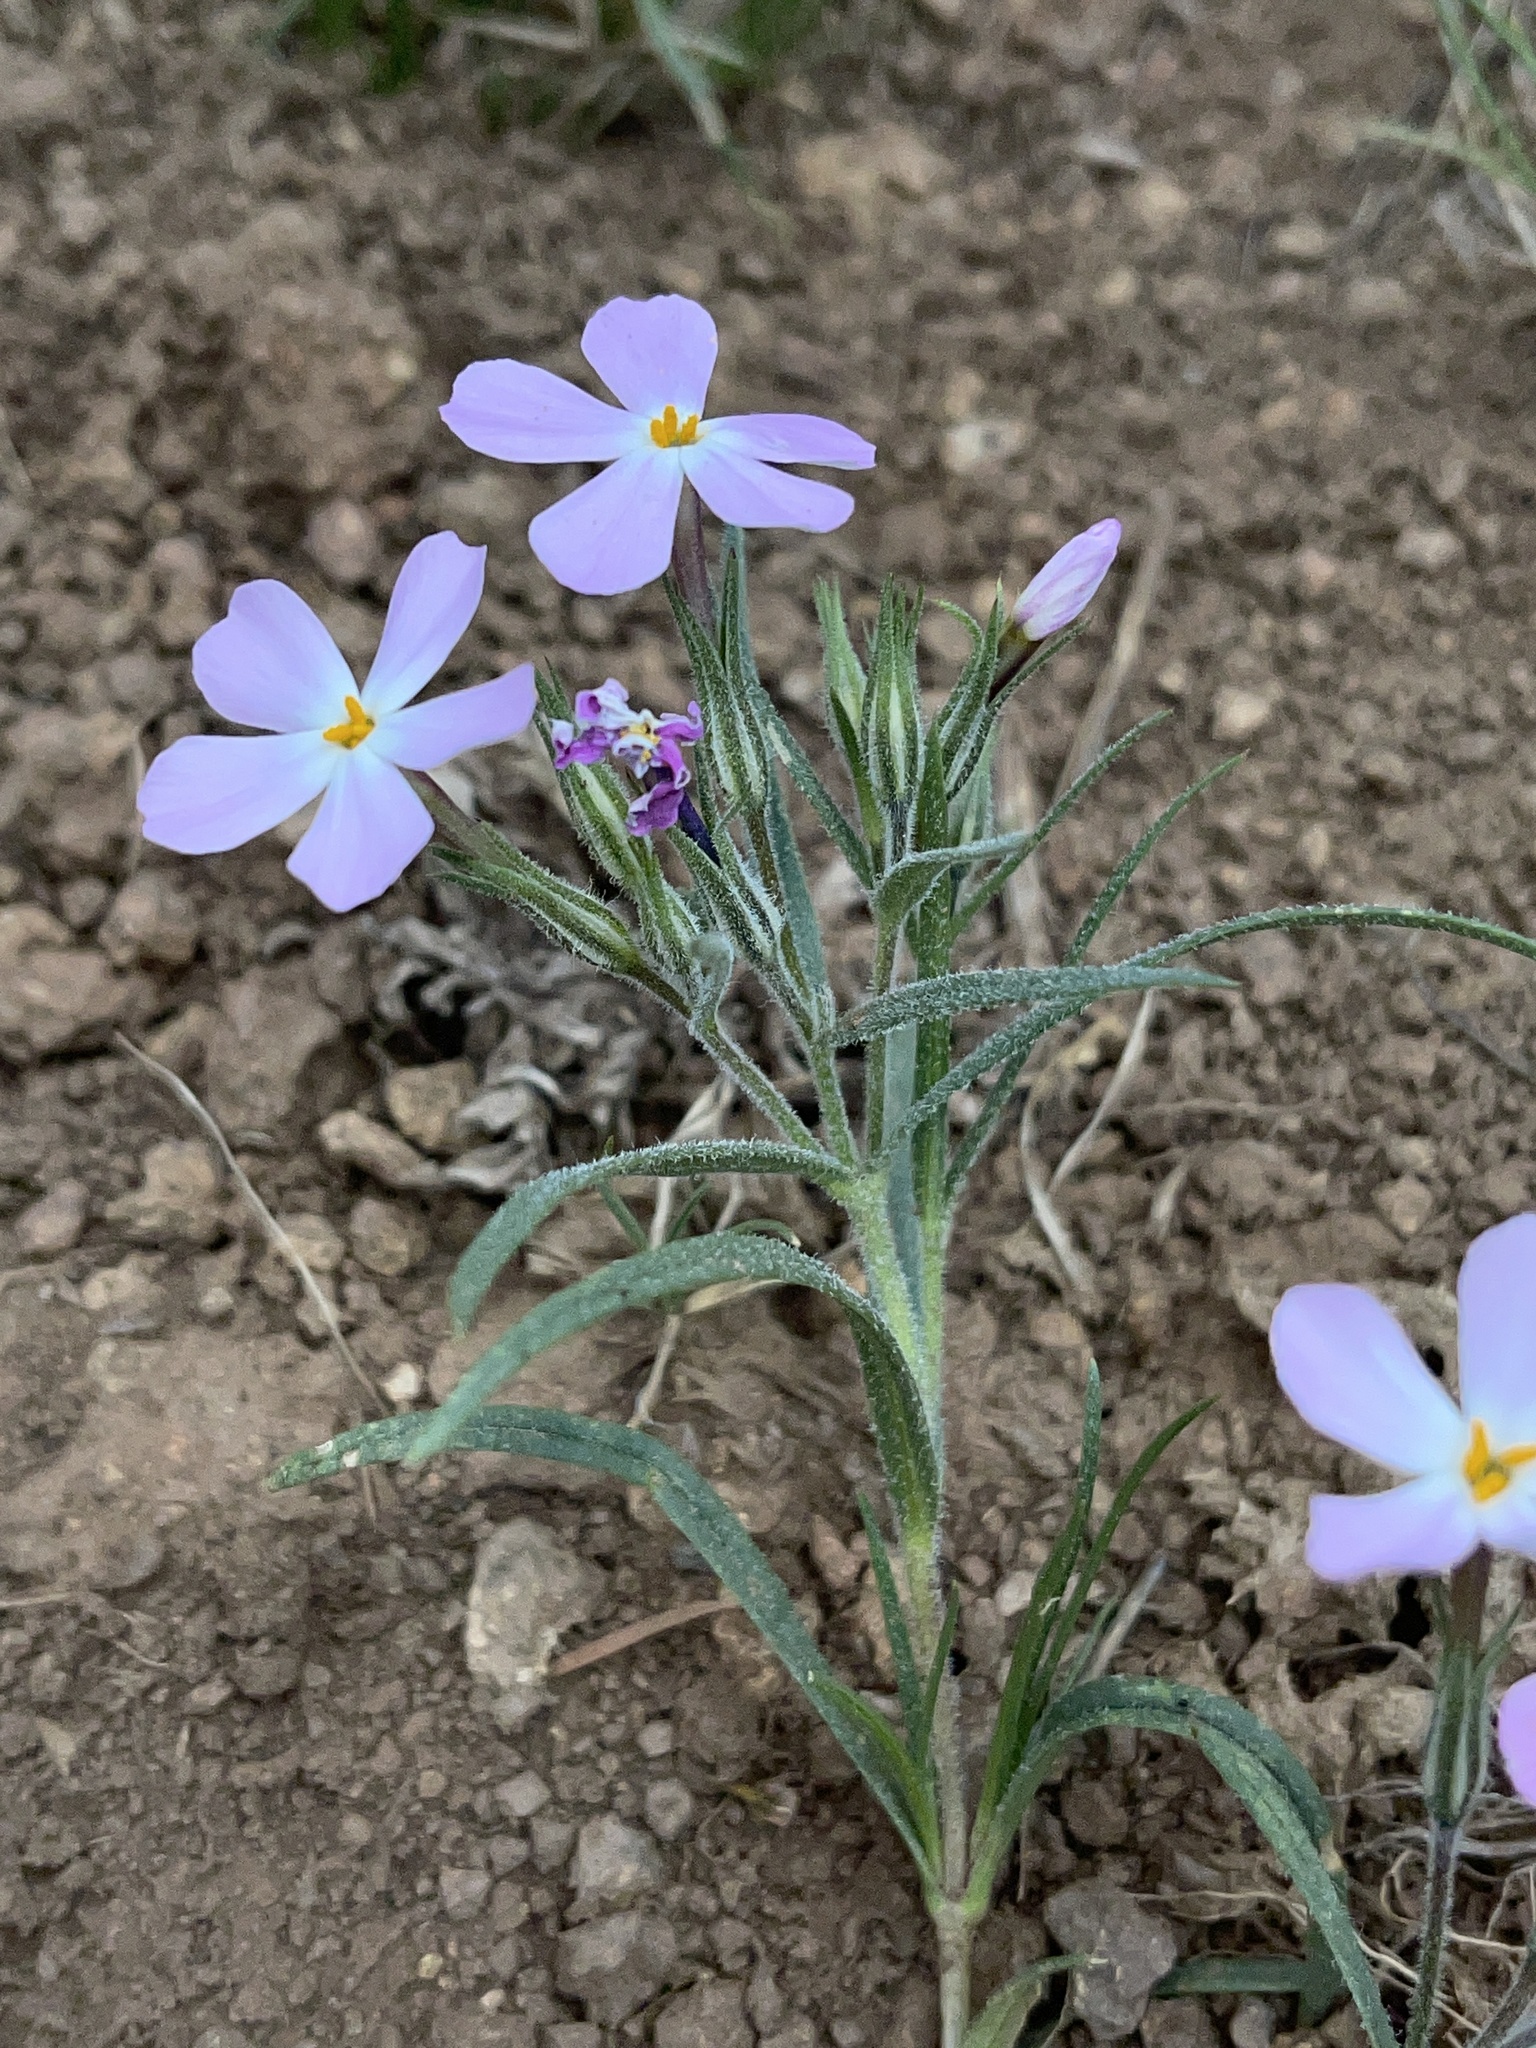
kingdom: Plantae
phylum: Tracheophyta
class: Magnoliopsida
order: Ericales
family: Polemoniaceae
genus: Phlox
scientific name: Phlox longifolia
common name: Longleaf phlox
